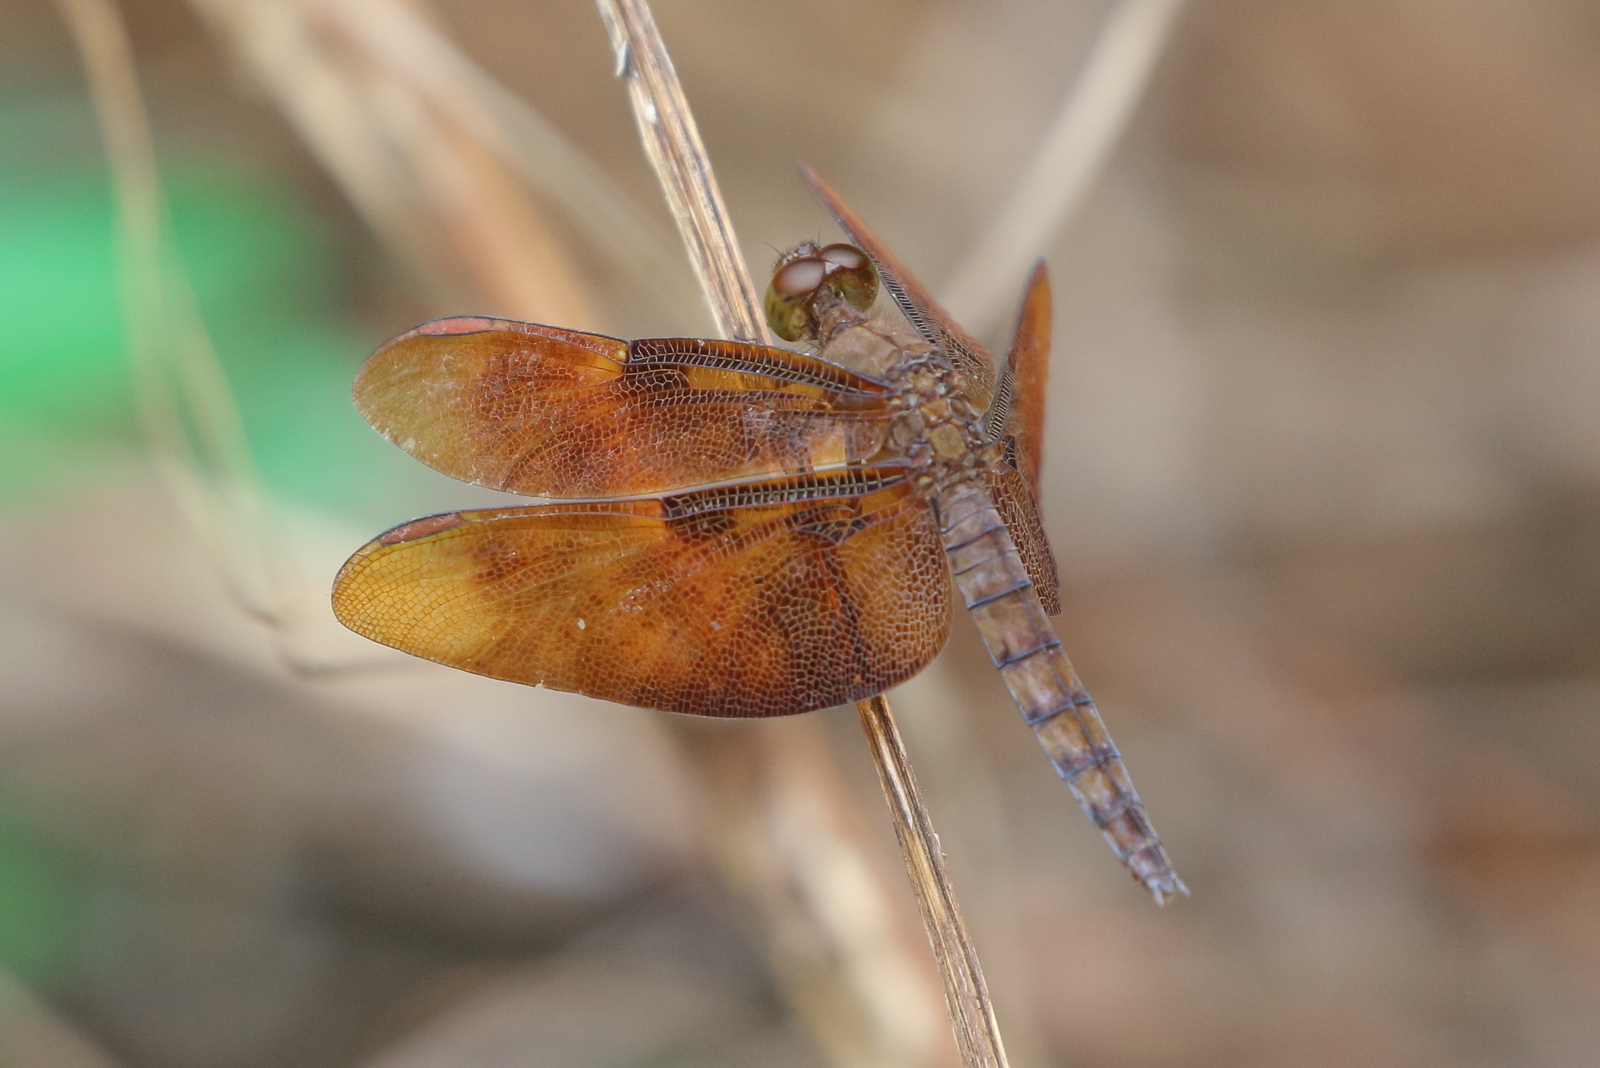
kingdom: Animalia
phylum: Arthropoda
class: Insecta
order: Odonata
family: Libellulidae
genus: Neurothemis
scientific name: Neurothemis fulvia
